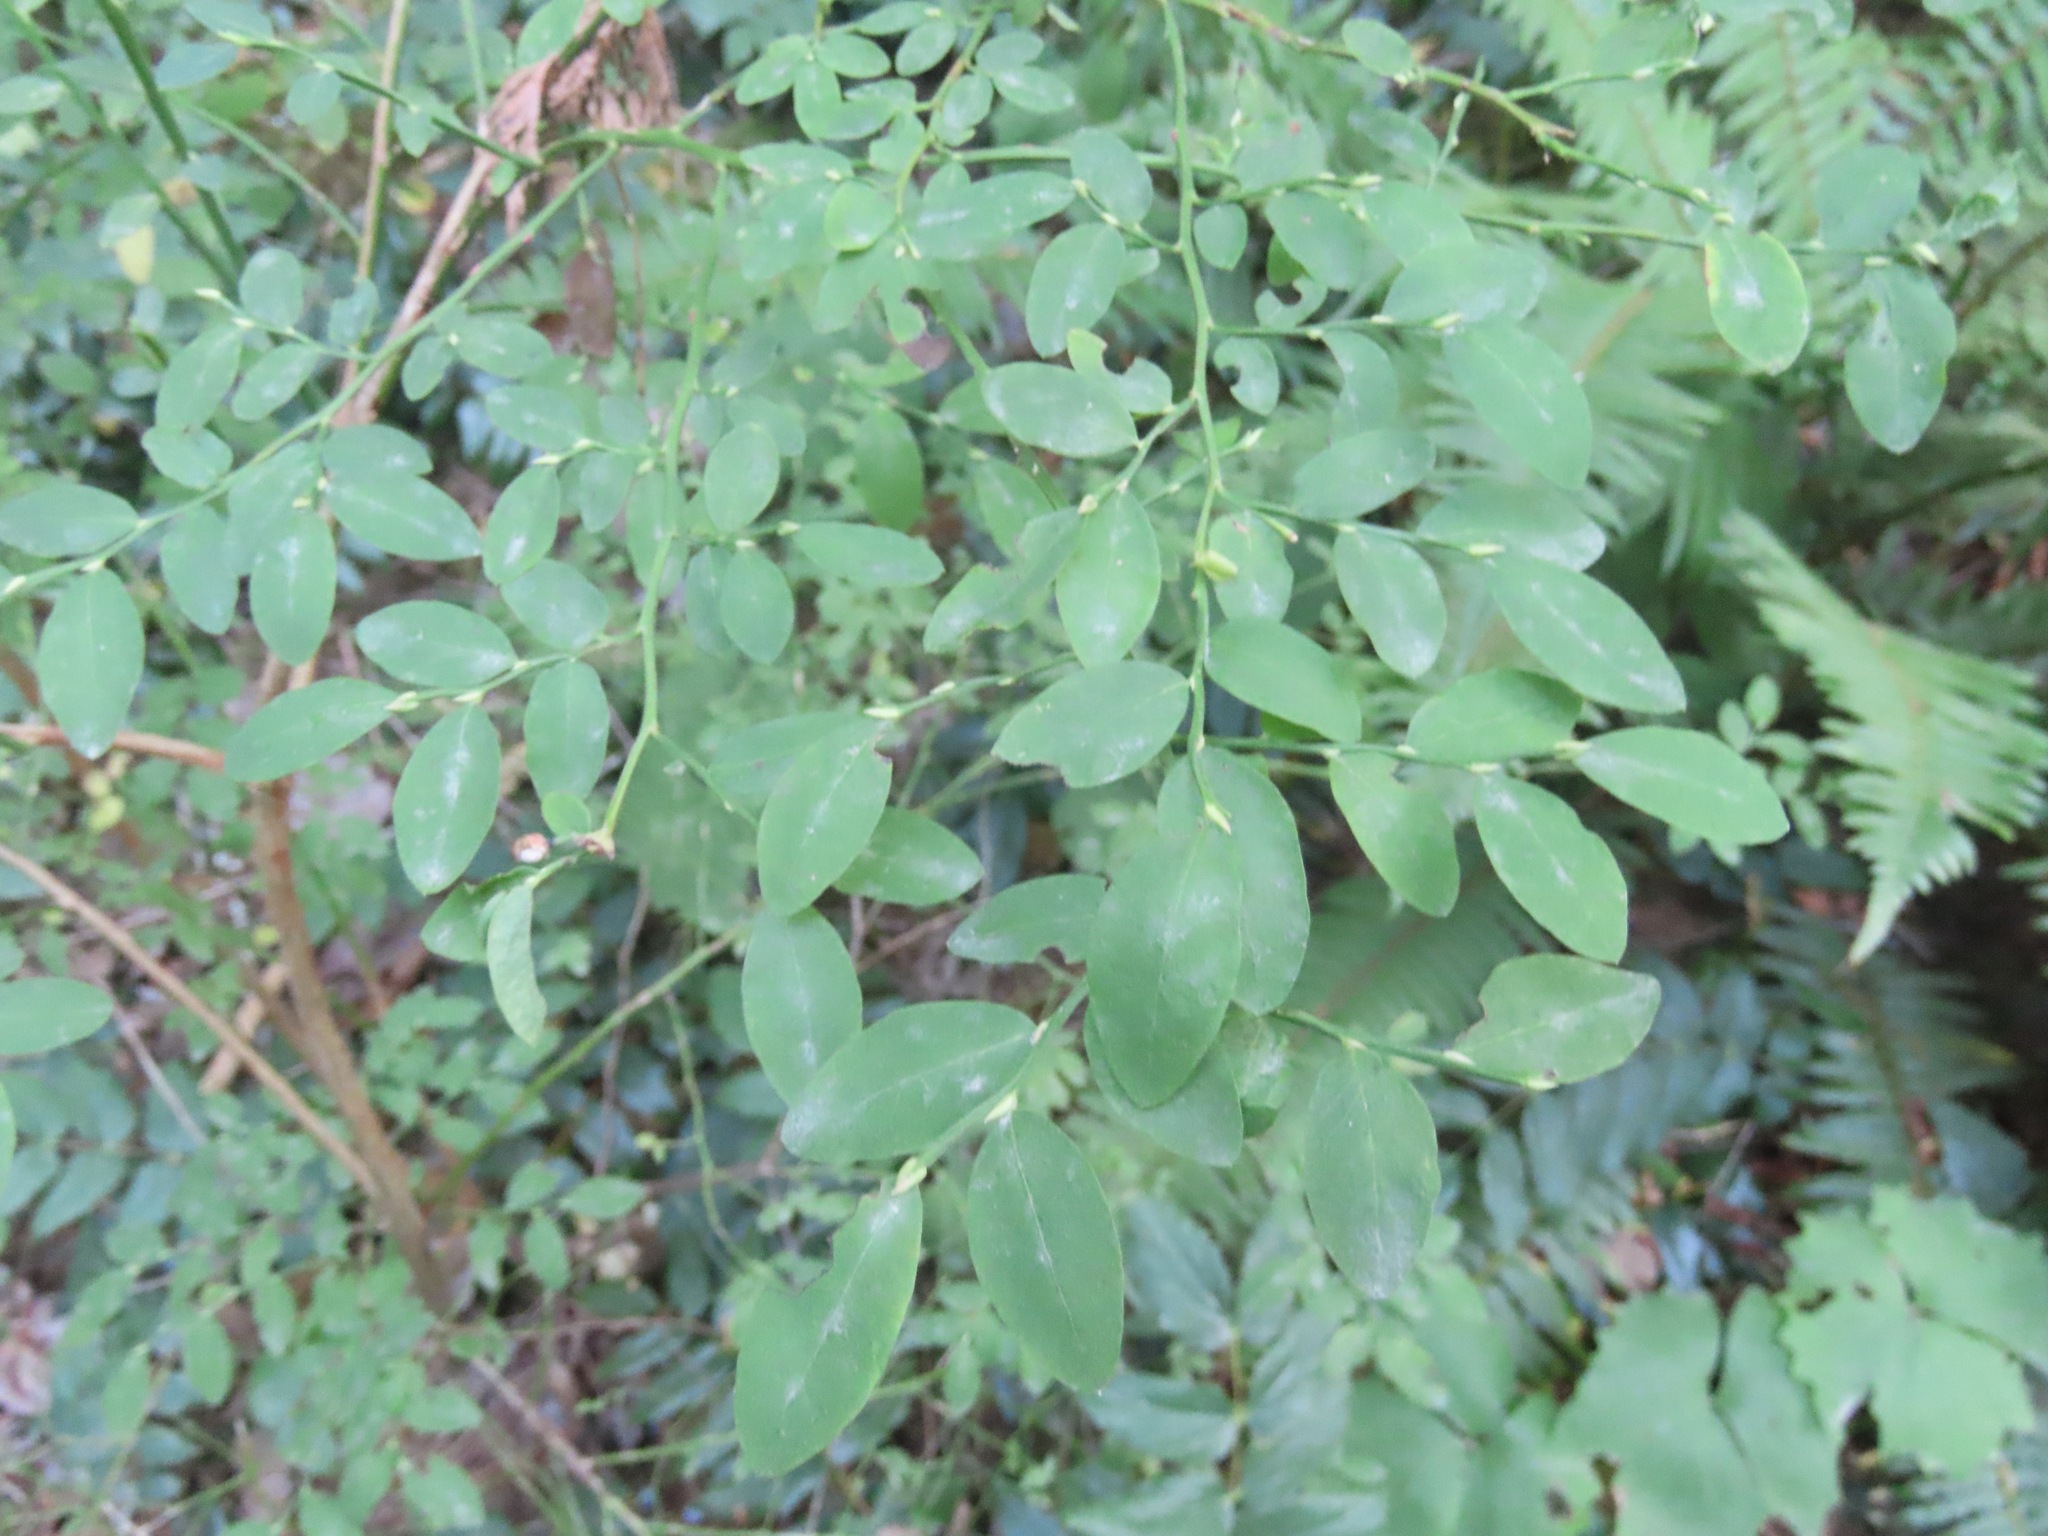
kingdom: Plantae
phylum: Tracheophyta
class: Magnoliopsida
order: Ericales
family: Ericaceae
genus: Vaccinium
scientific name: Vaccinium parvifolium
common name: Red-huckleberry
